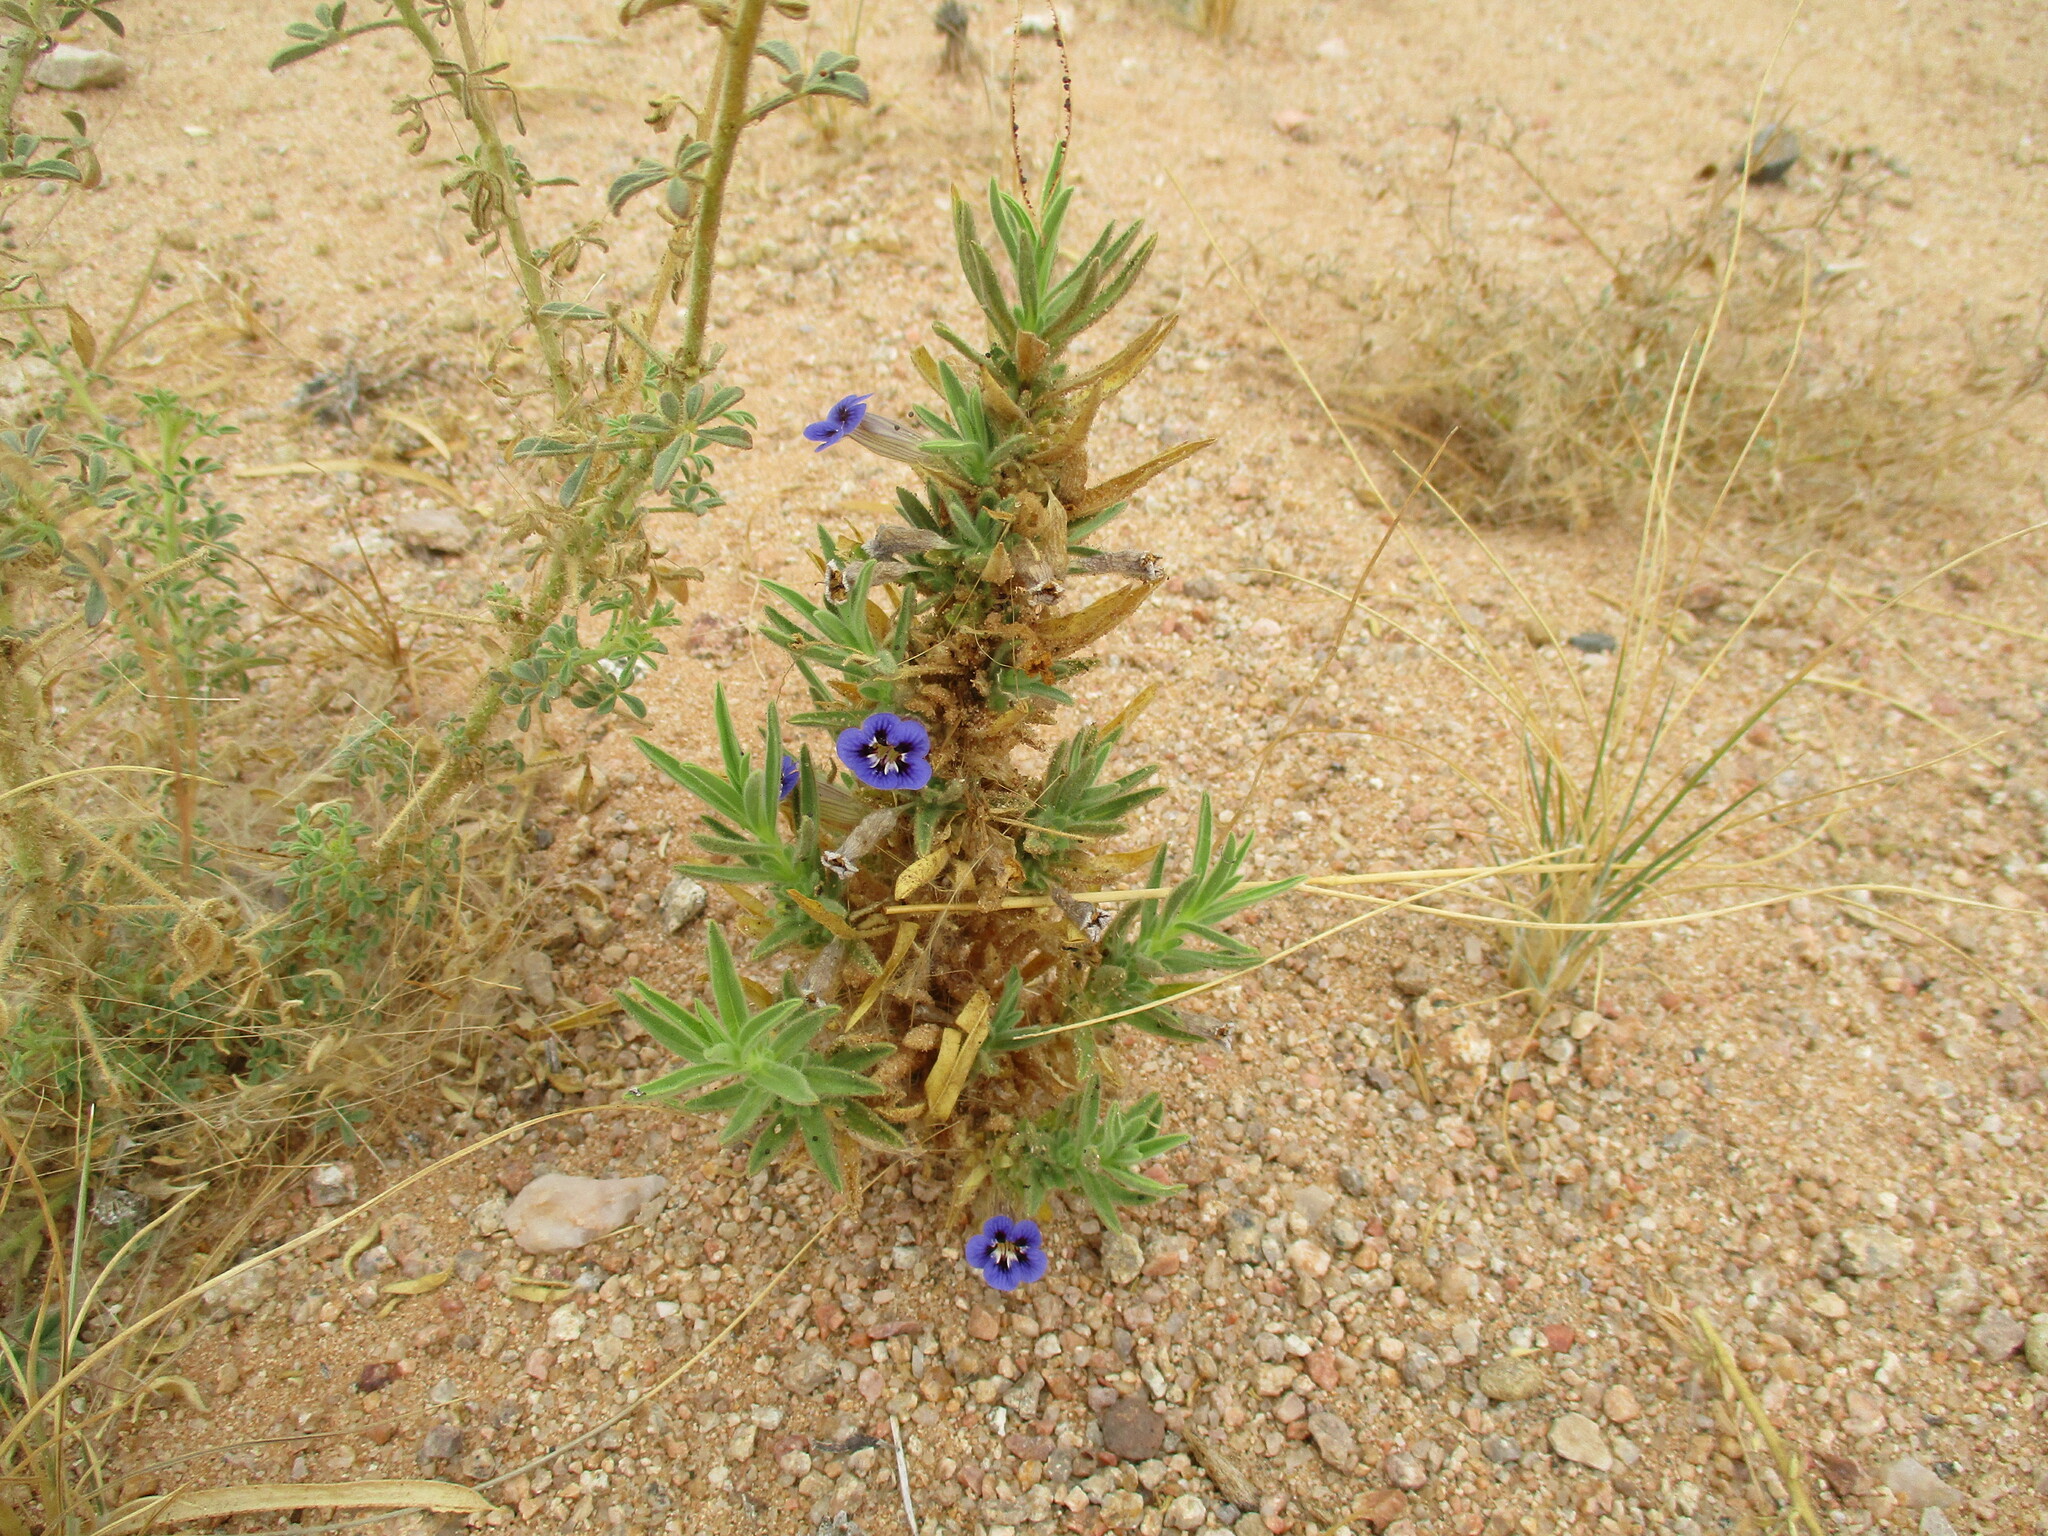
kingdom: Plantae
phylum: Tracheophyta
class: Magnoliopsida
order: Lamiales
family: Scrophulariaceae
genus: Aptosimum
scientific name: Aptosimum spinescens
